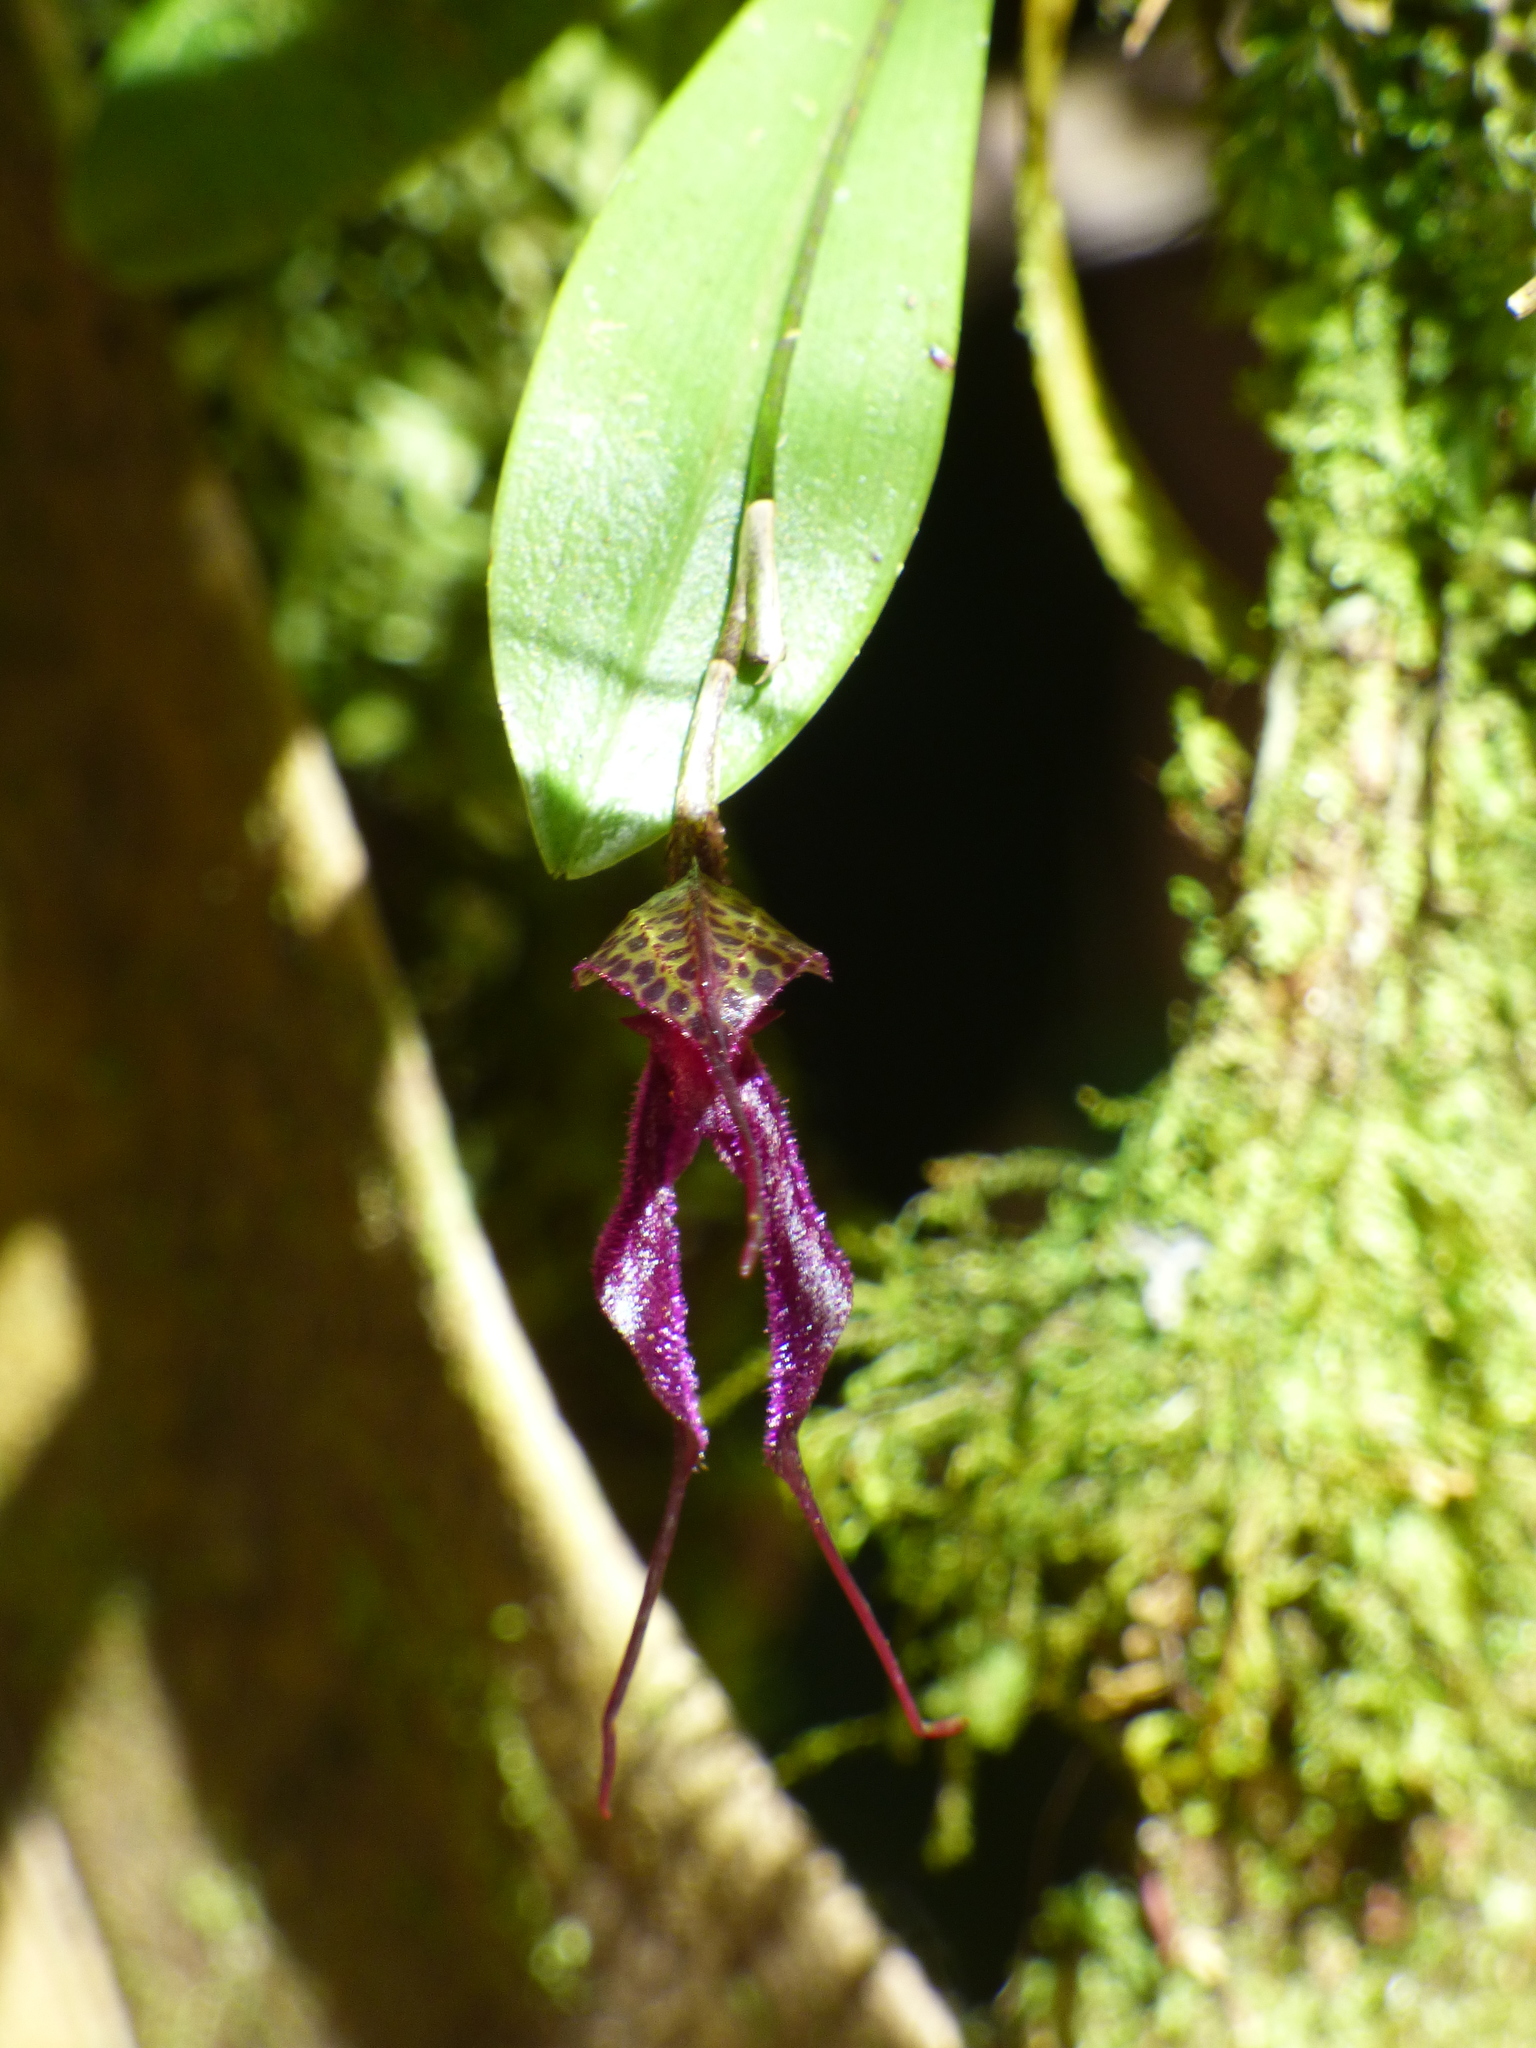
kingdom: Plantae
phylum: Tracheophyta
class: Liliopsida
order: Asparagales
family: Orchidaceae
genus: Masdevallia
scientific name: Masdevallia heteroptera
